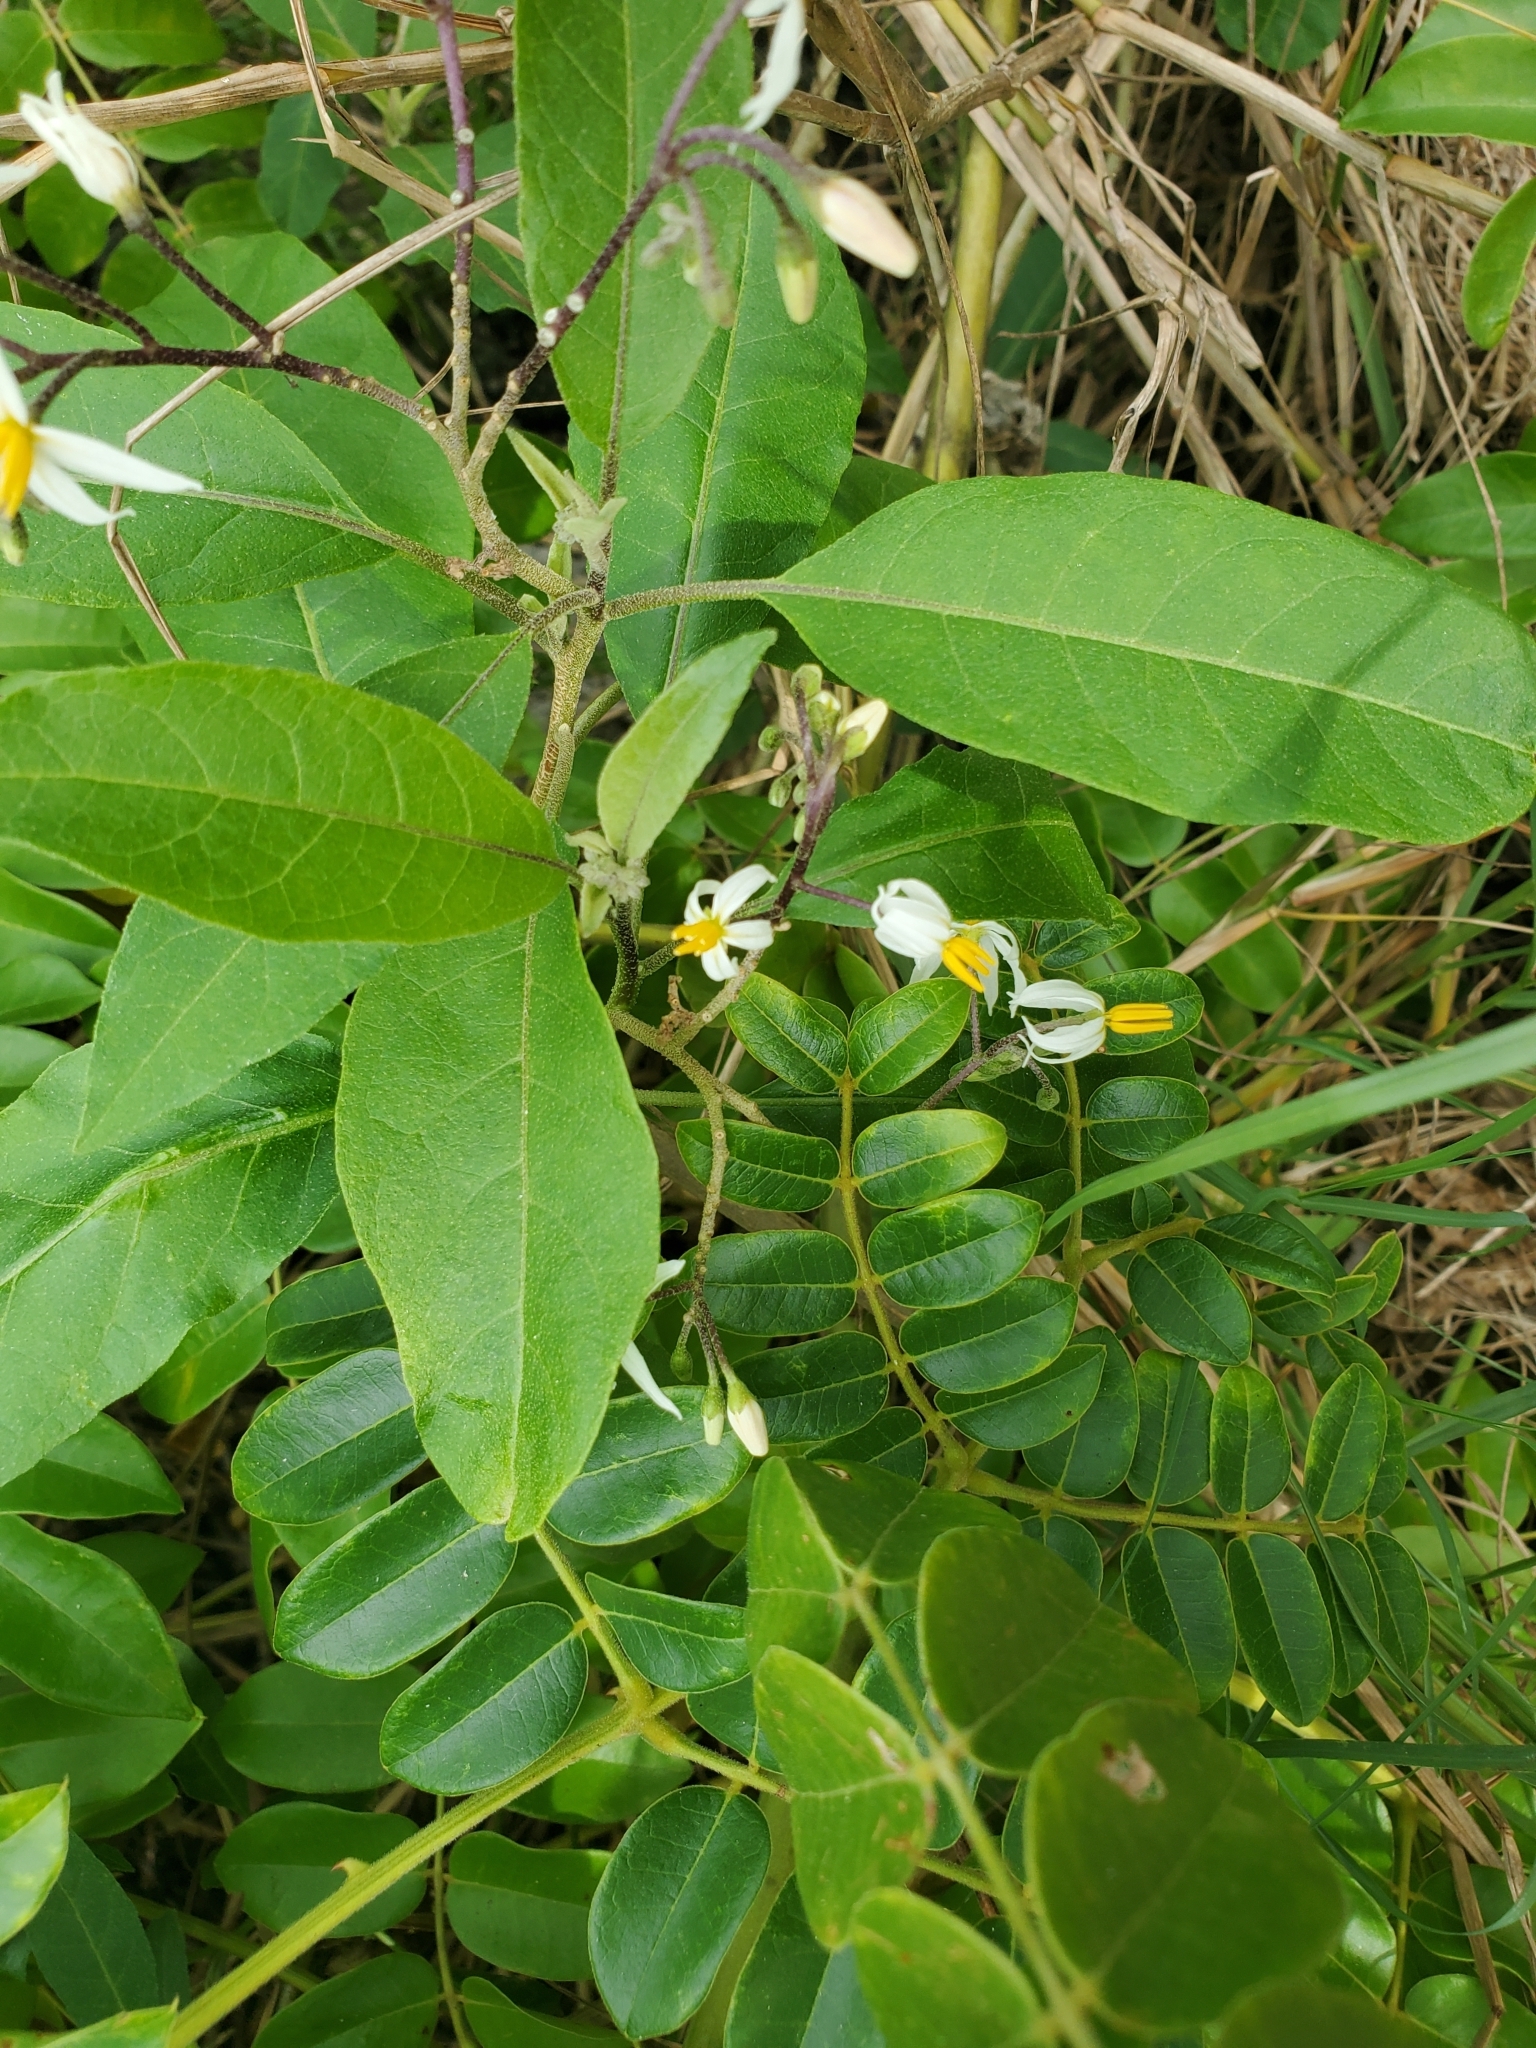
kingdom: Plantae
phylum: Tracheophyta
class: Magnoliopsida
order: Solanales
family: Solanaceae
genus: Solanum
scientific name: Solanum donianum
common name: Mullein nightshade
